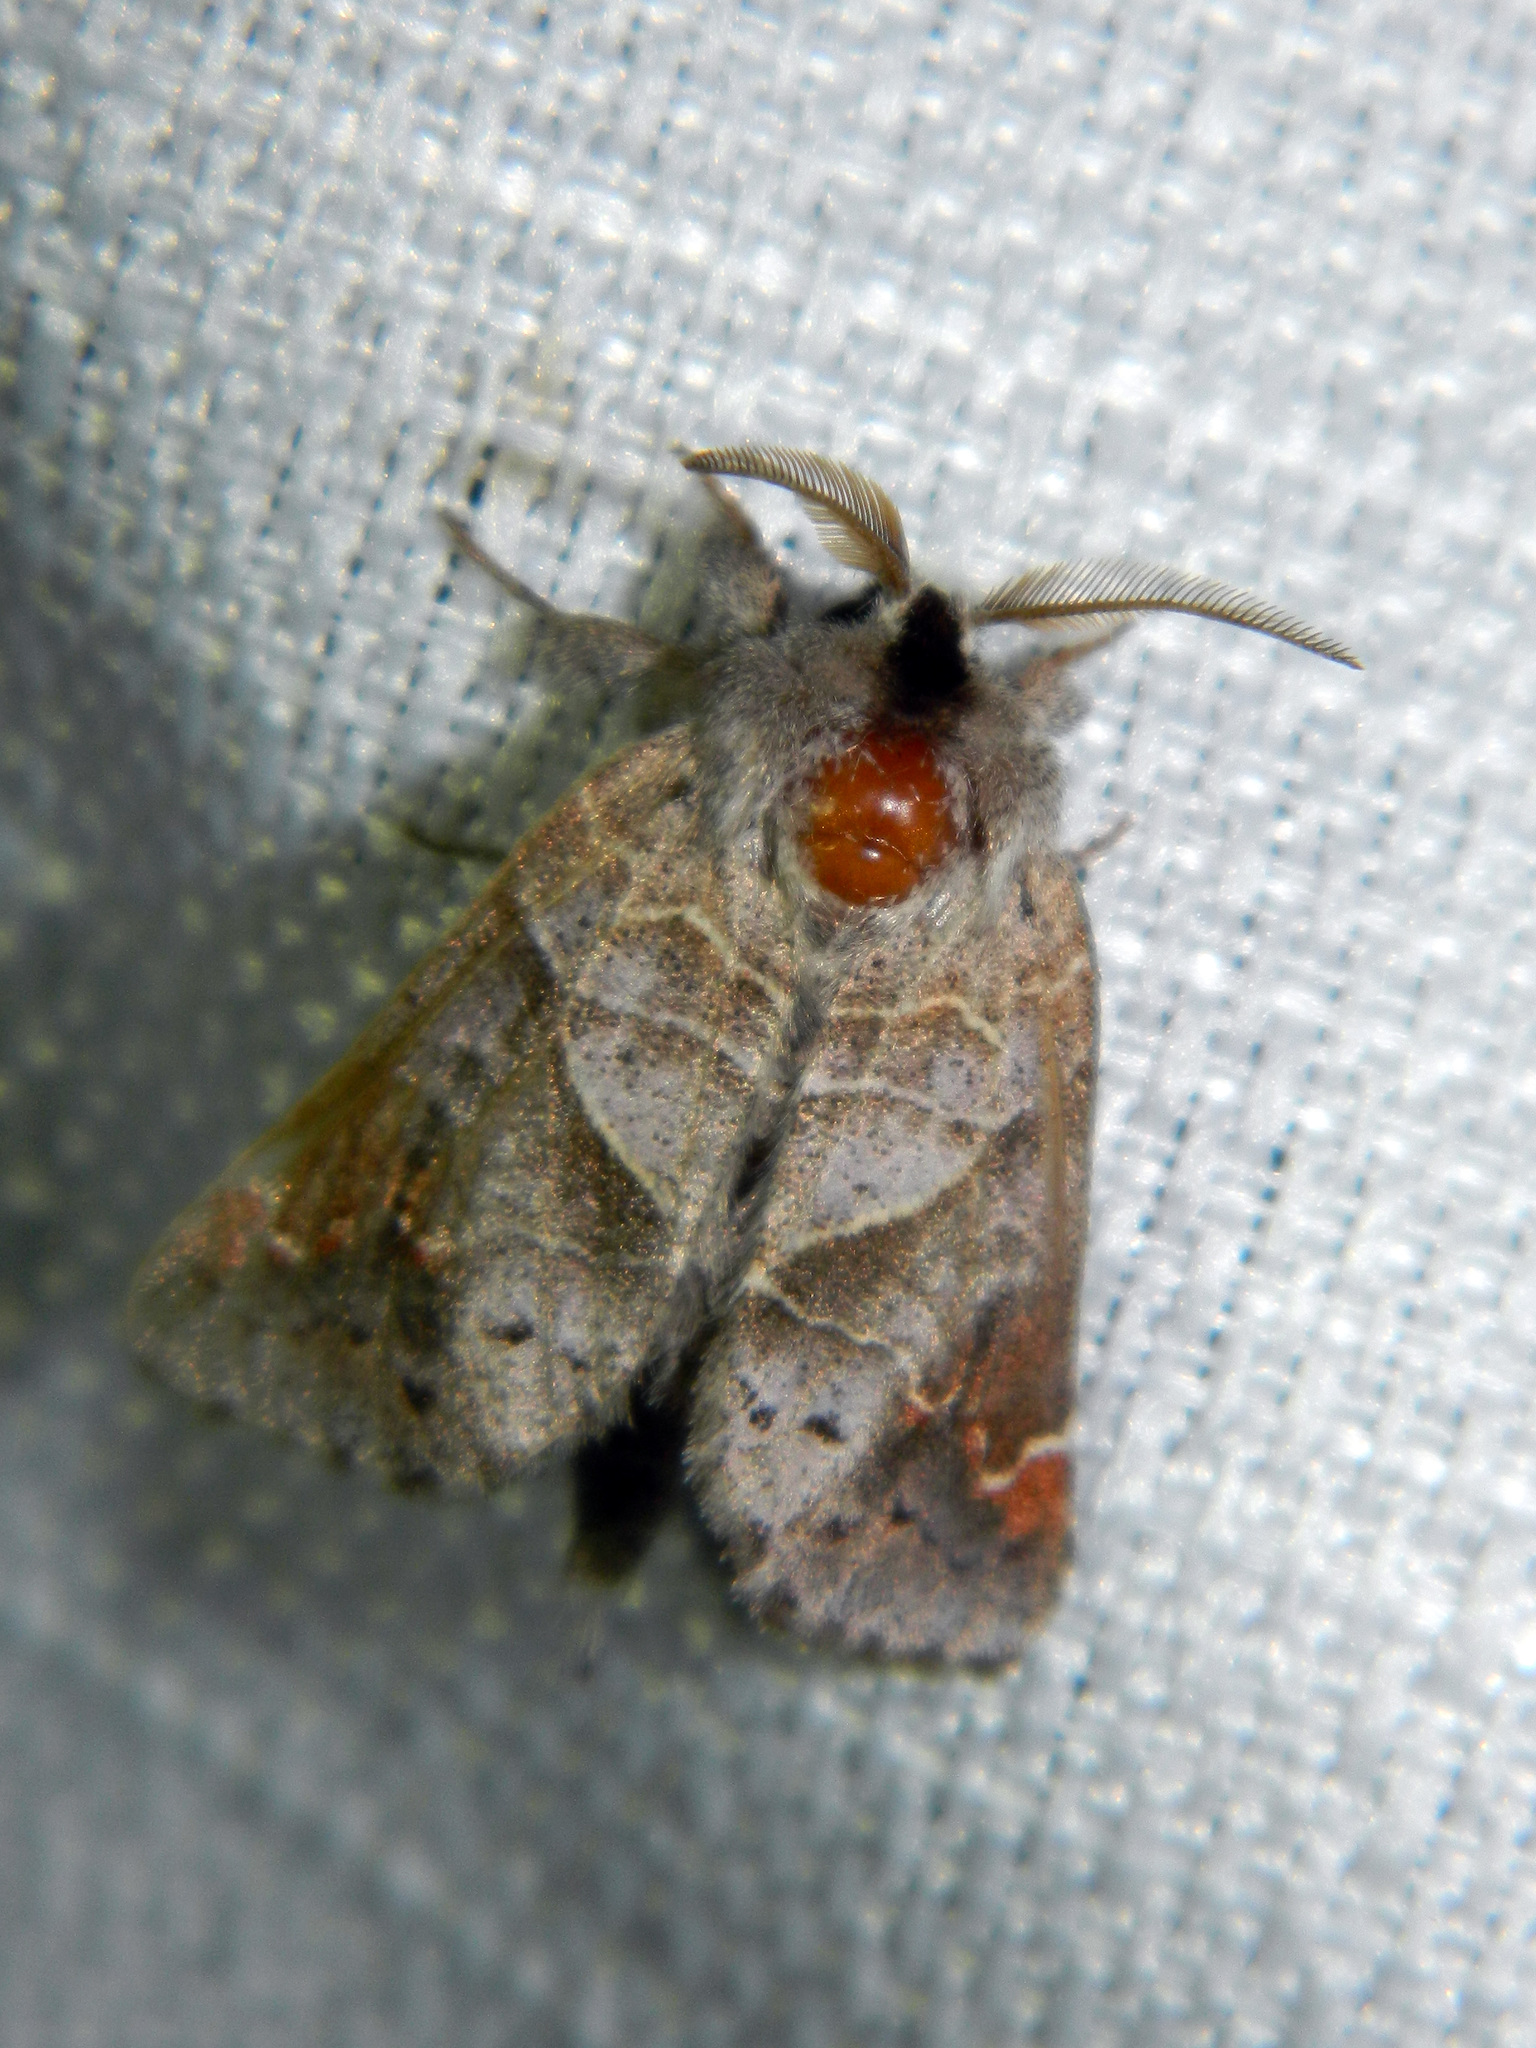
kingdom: Animalia
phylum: Arthropoda
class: Insecta
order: Lepidoptera
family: Notodontidae
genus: Clostera
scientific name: Clostera apicalis
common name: Apical prominent
